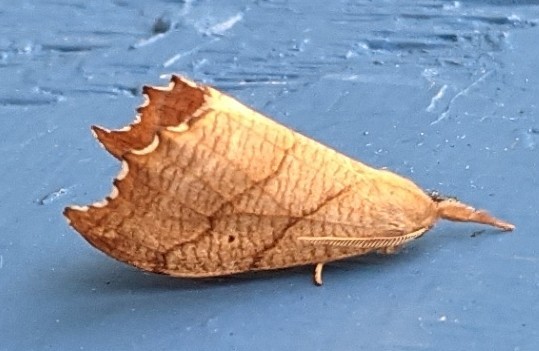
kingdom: Animalia
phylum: Arthropoda
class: Insecta
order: Lepidoptera
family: Drepanidae
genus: Falcaria
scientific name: Falcaria bilineata
